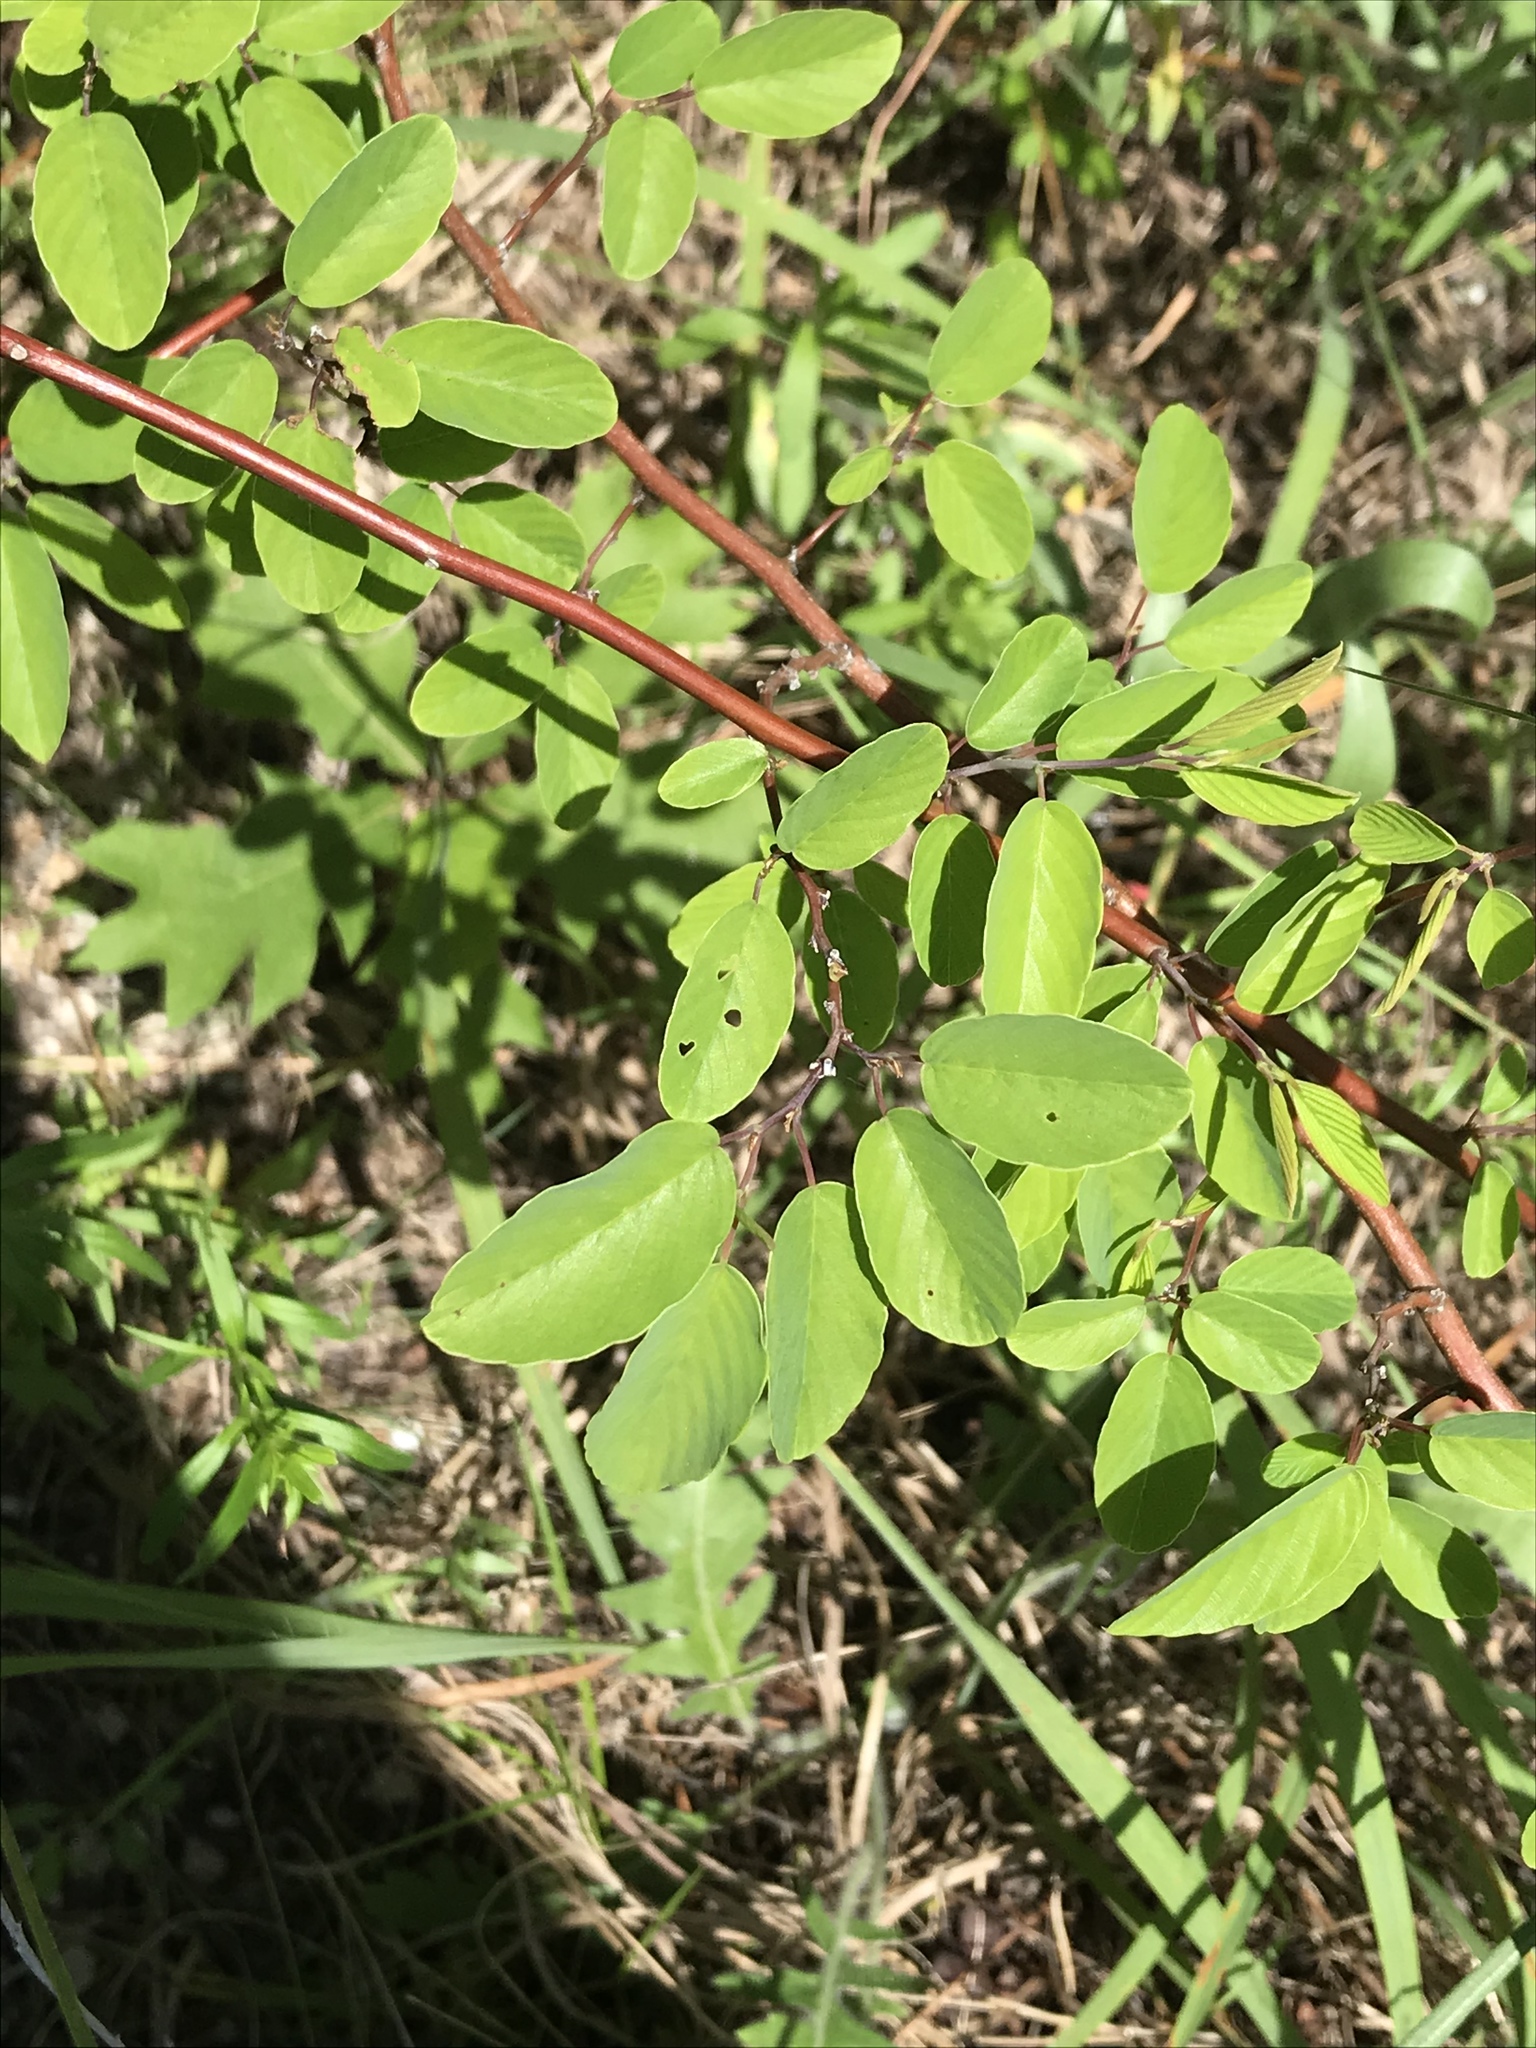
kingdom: Plantae
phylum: Tracheophyta
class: Magnoliopsida
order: Rosales
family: Rhamnaceae
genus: Berchemia
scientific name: Berchemia scandens
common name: Supplejack
